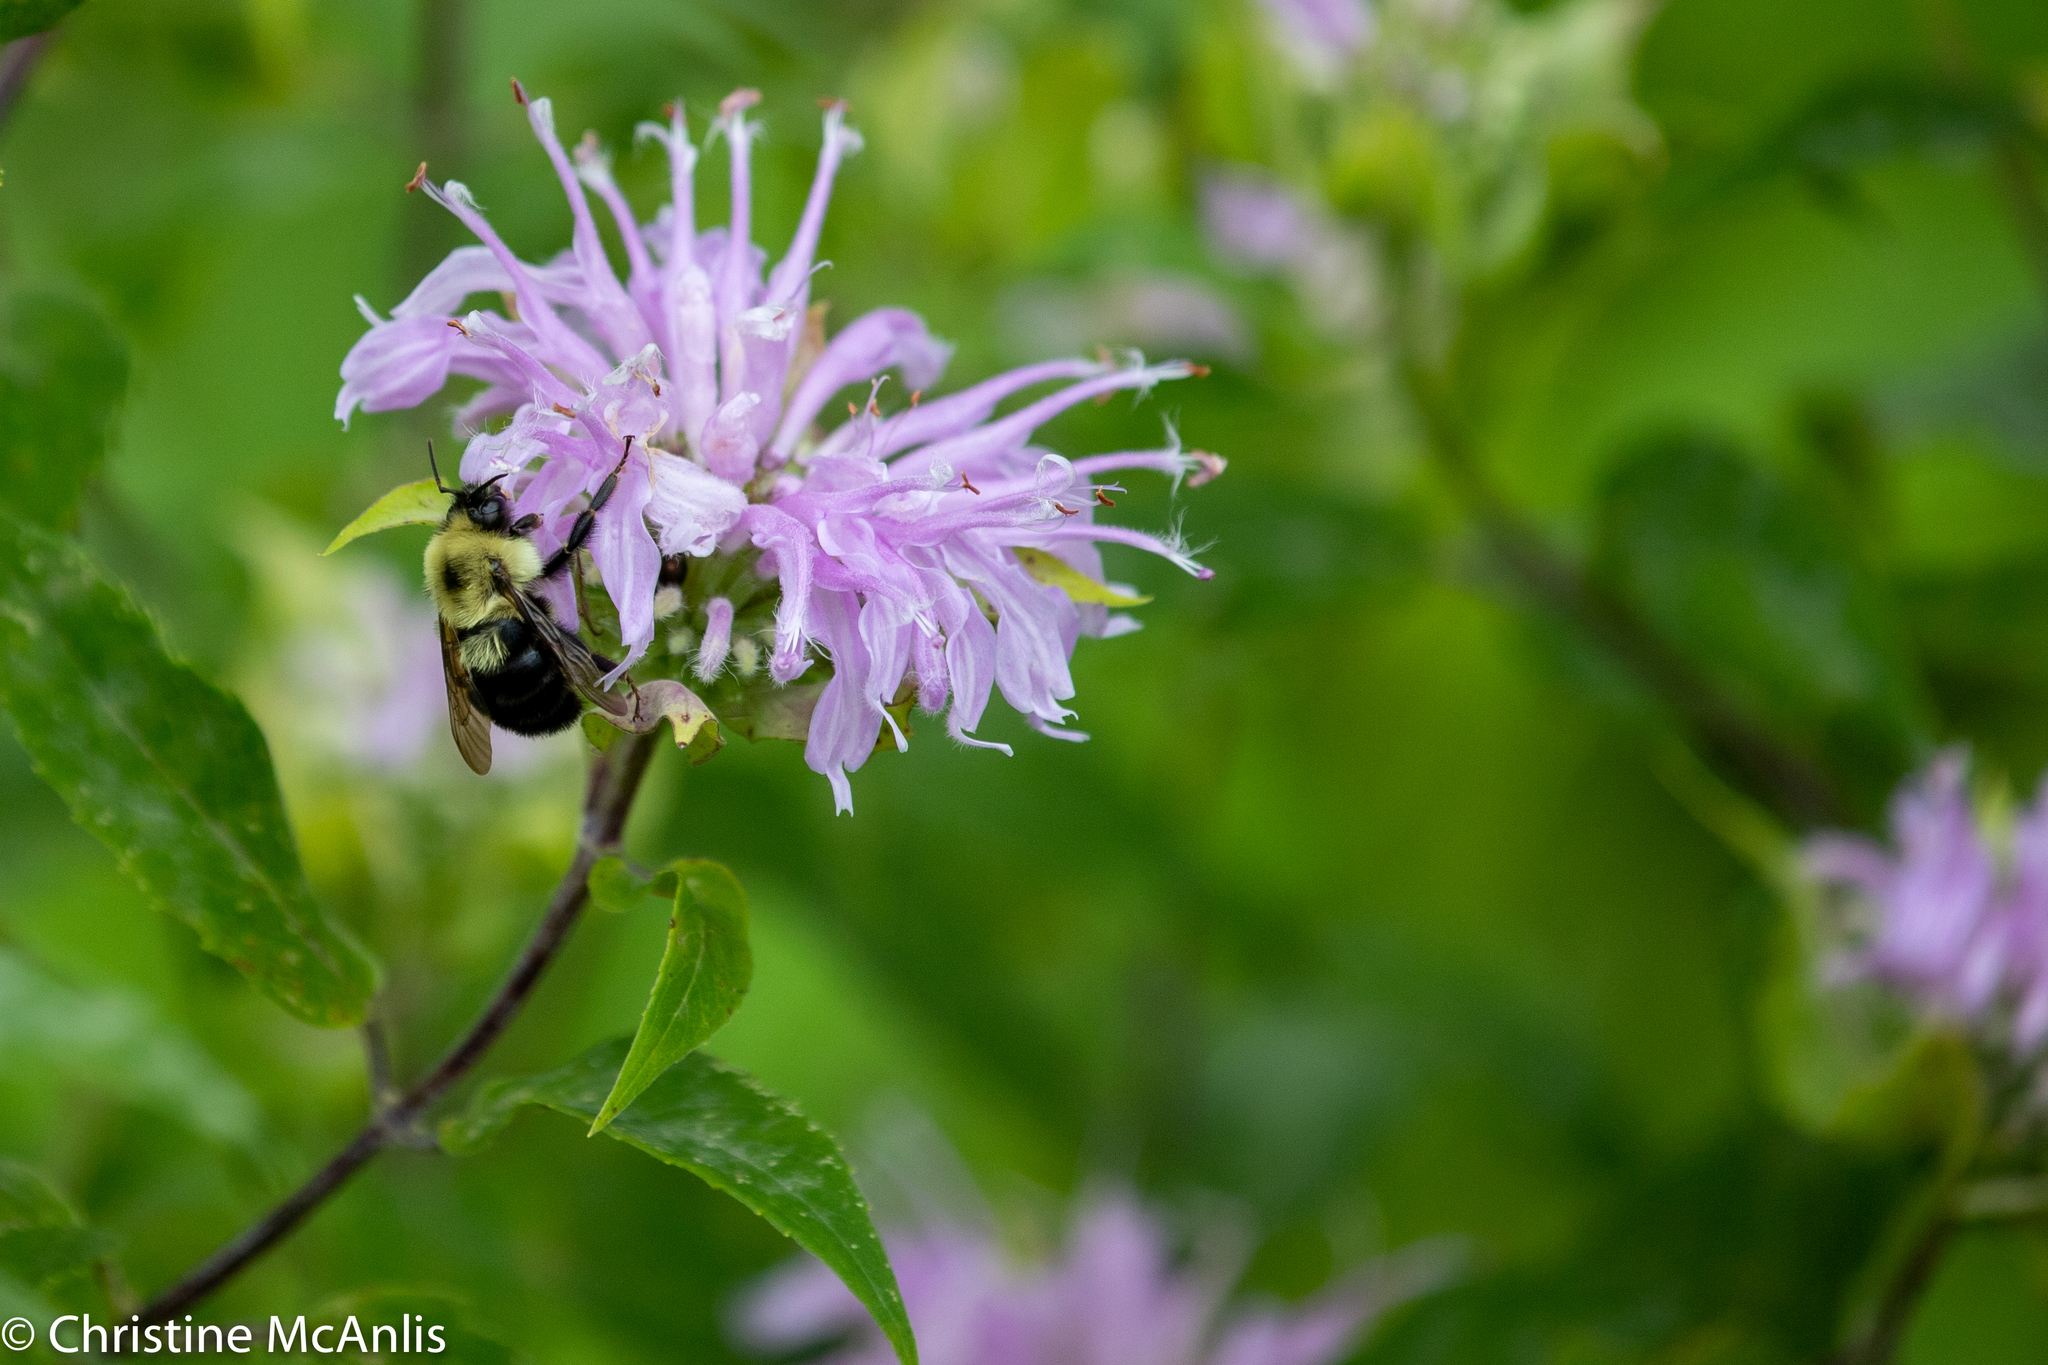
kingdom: Animalia
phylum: Arthropoda
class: Insecta
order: Hymenoptera
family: Apidae
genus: Bombus
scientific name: Bombus bimaculatus
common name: Two-spotted bumble bee
